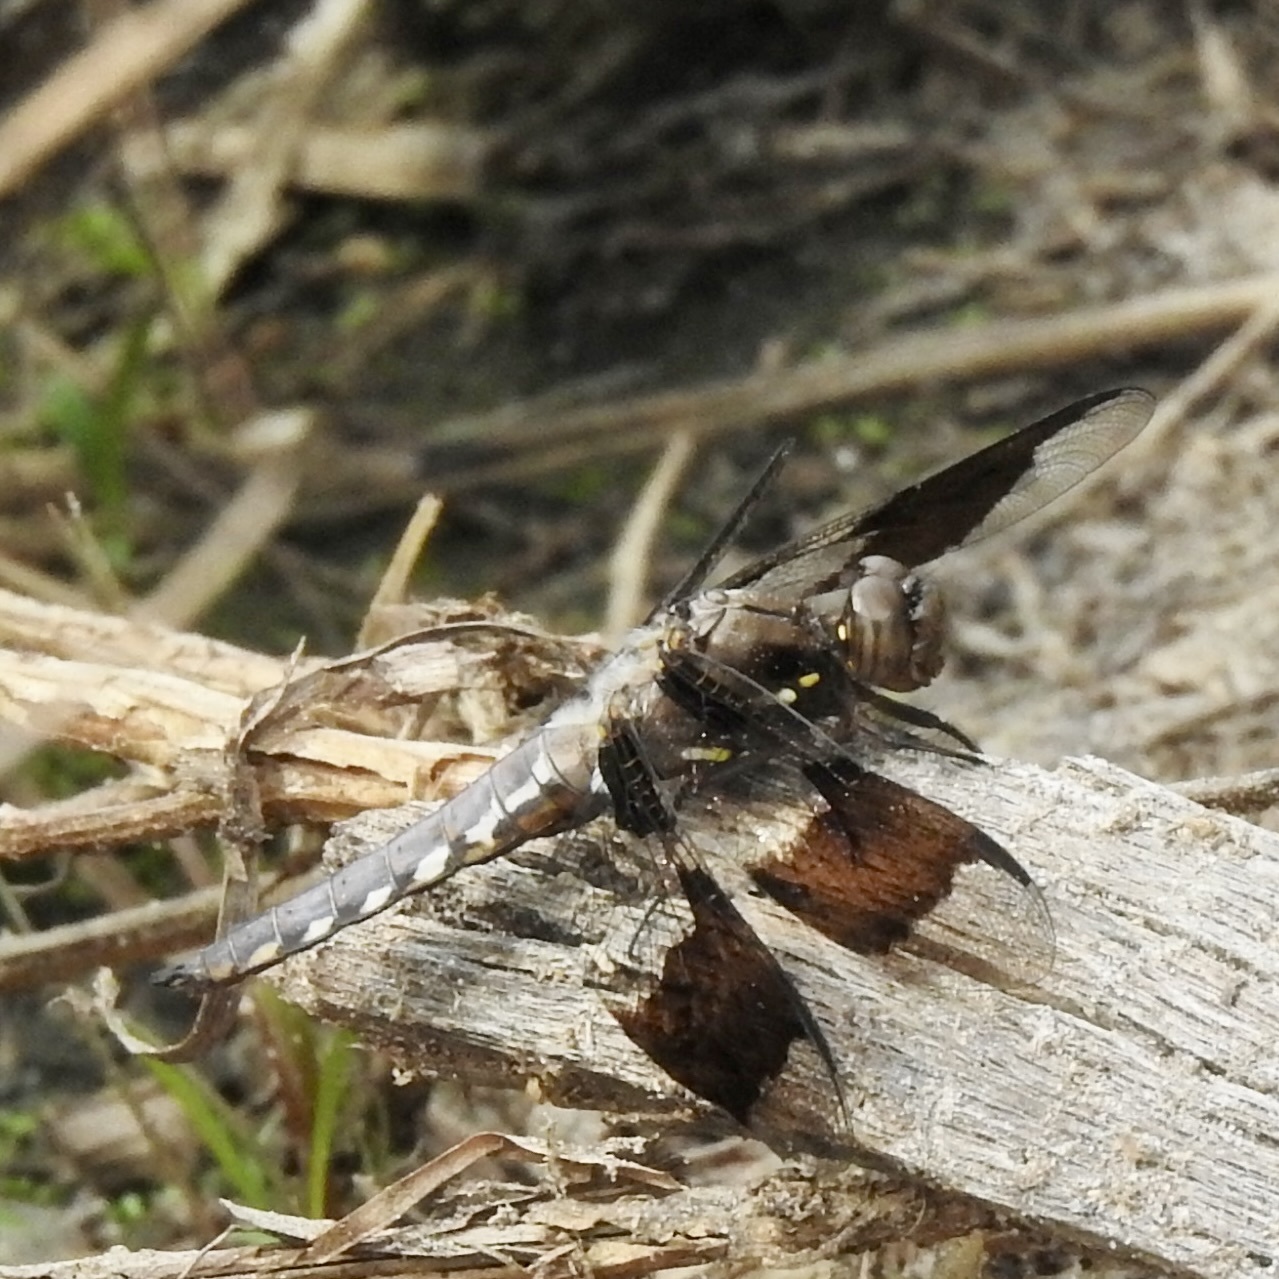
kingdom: Animalia
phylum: Arthropoda
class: Insecta
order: Odonata
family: Libellulidae
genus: Plathemis
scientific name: Plathemis lydia
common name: Common whitetail
